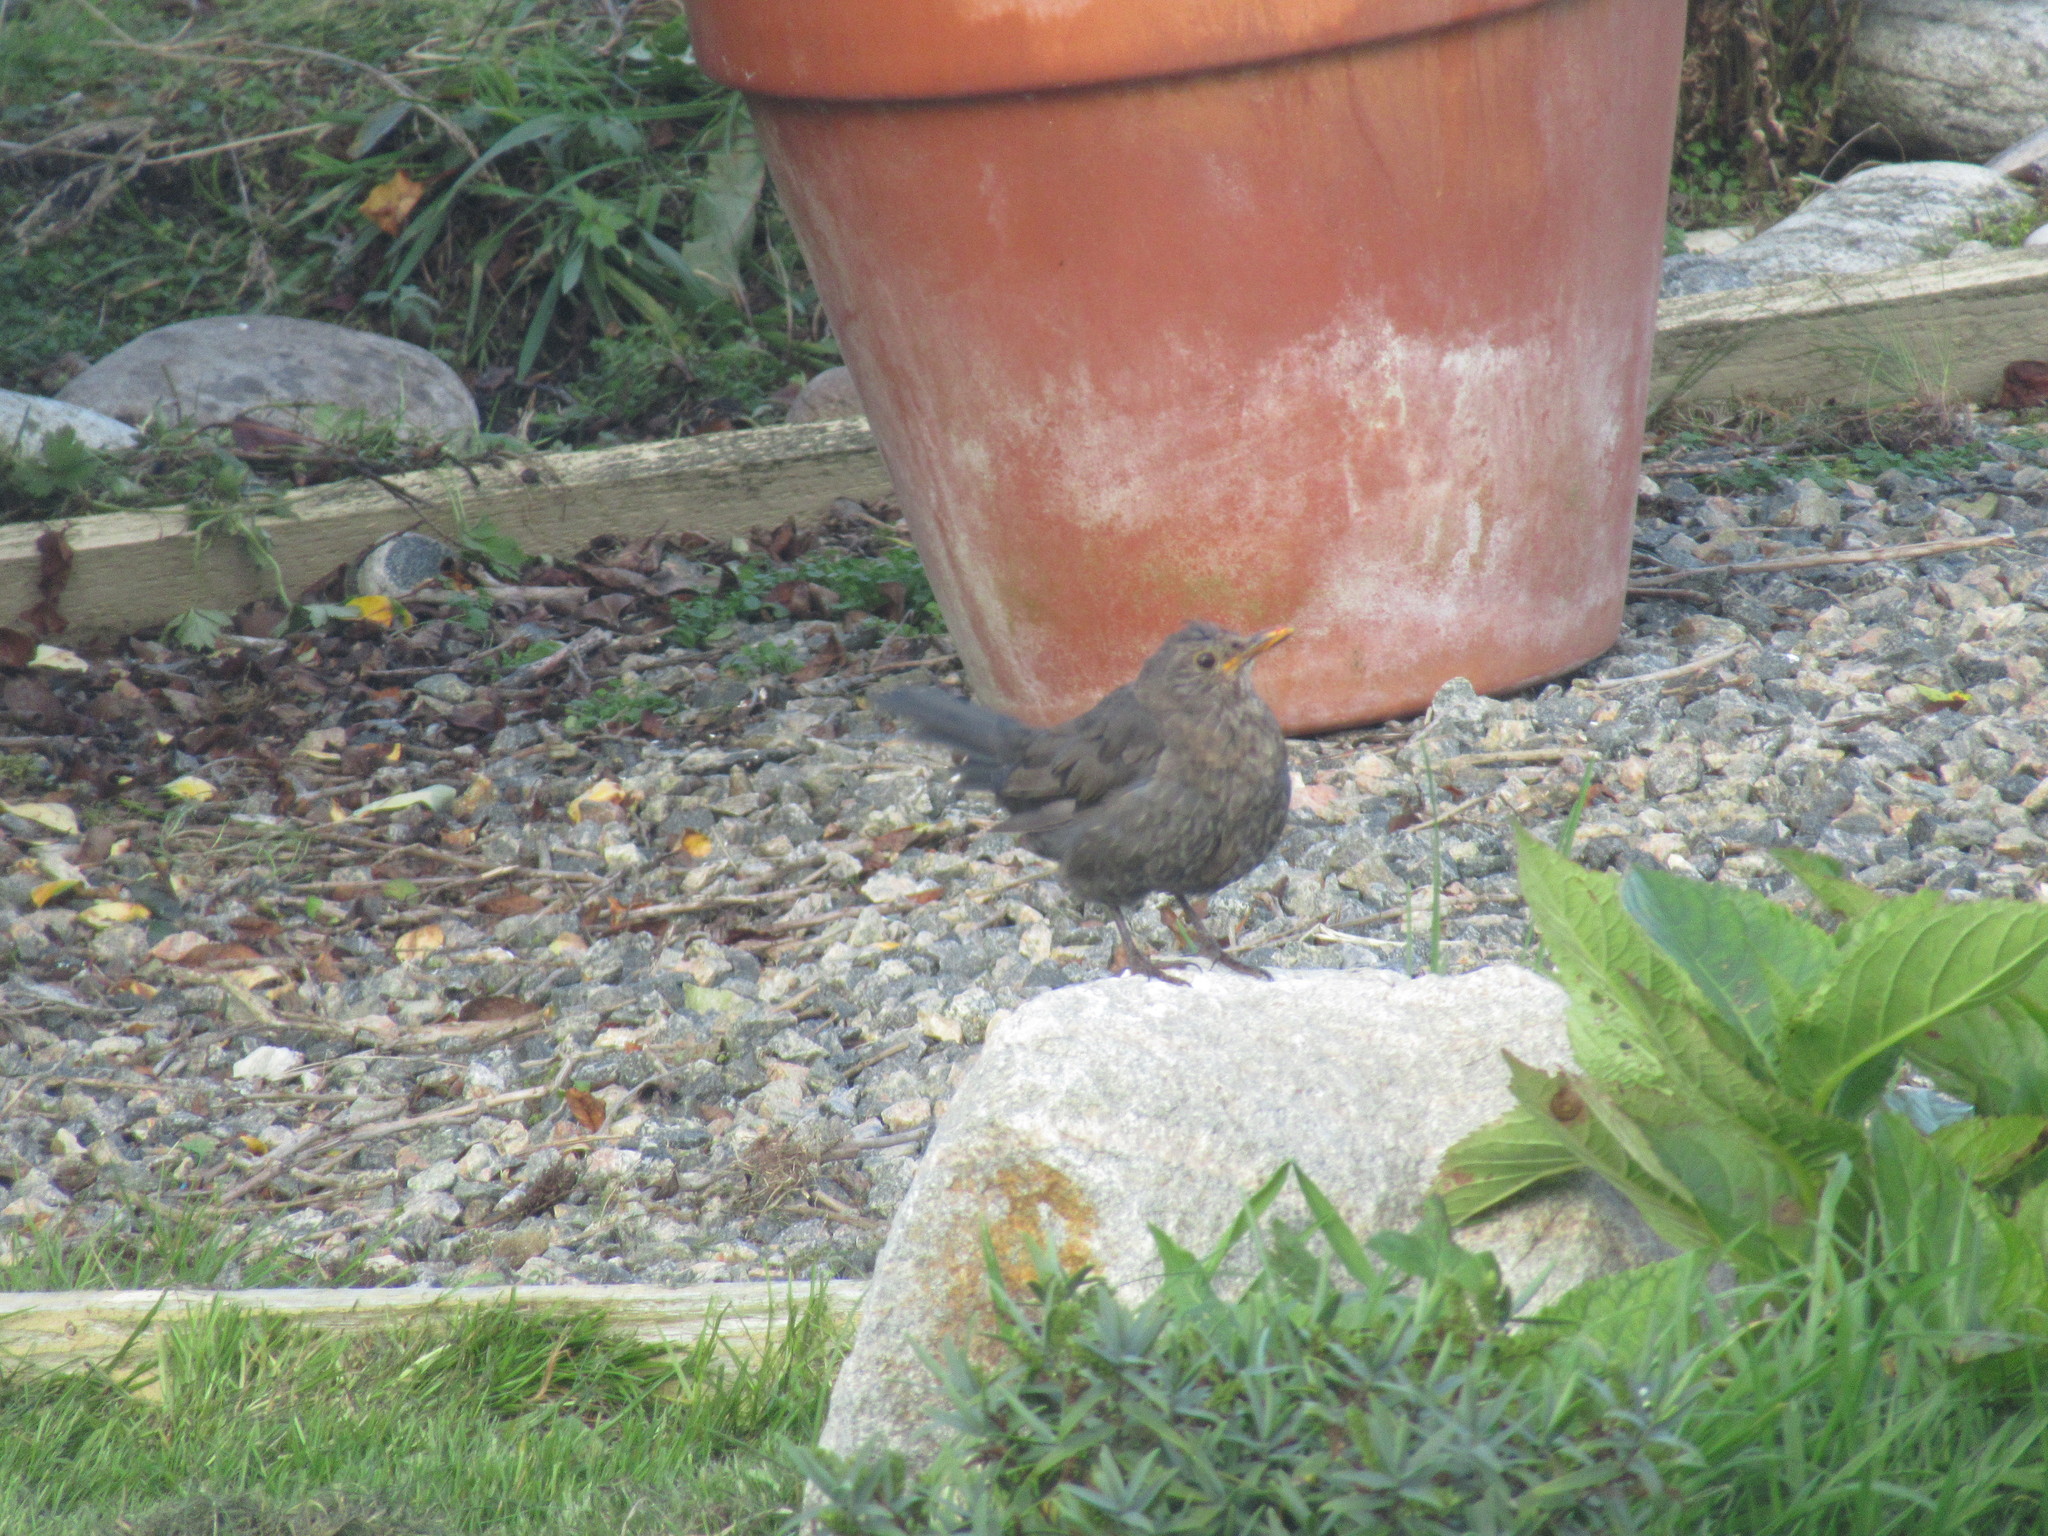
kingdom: Animalia
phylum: Chordata
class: Aves
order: Passeriformes
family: Turdidae
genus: Turdus
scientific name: Turdus merula
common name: Common blackbird
